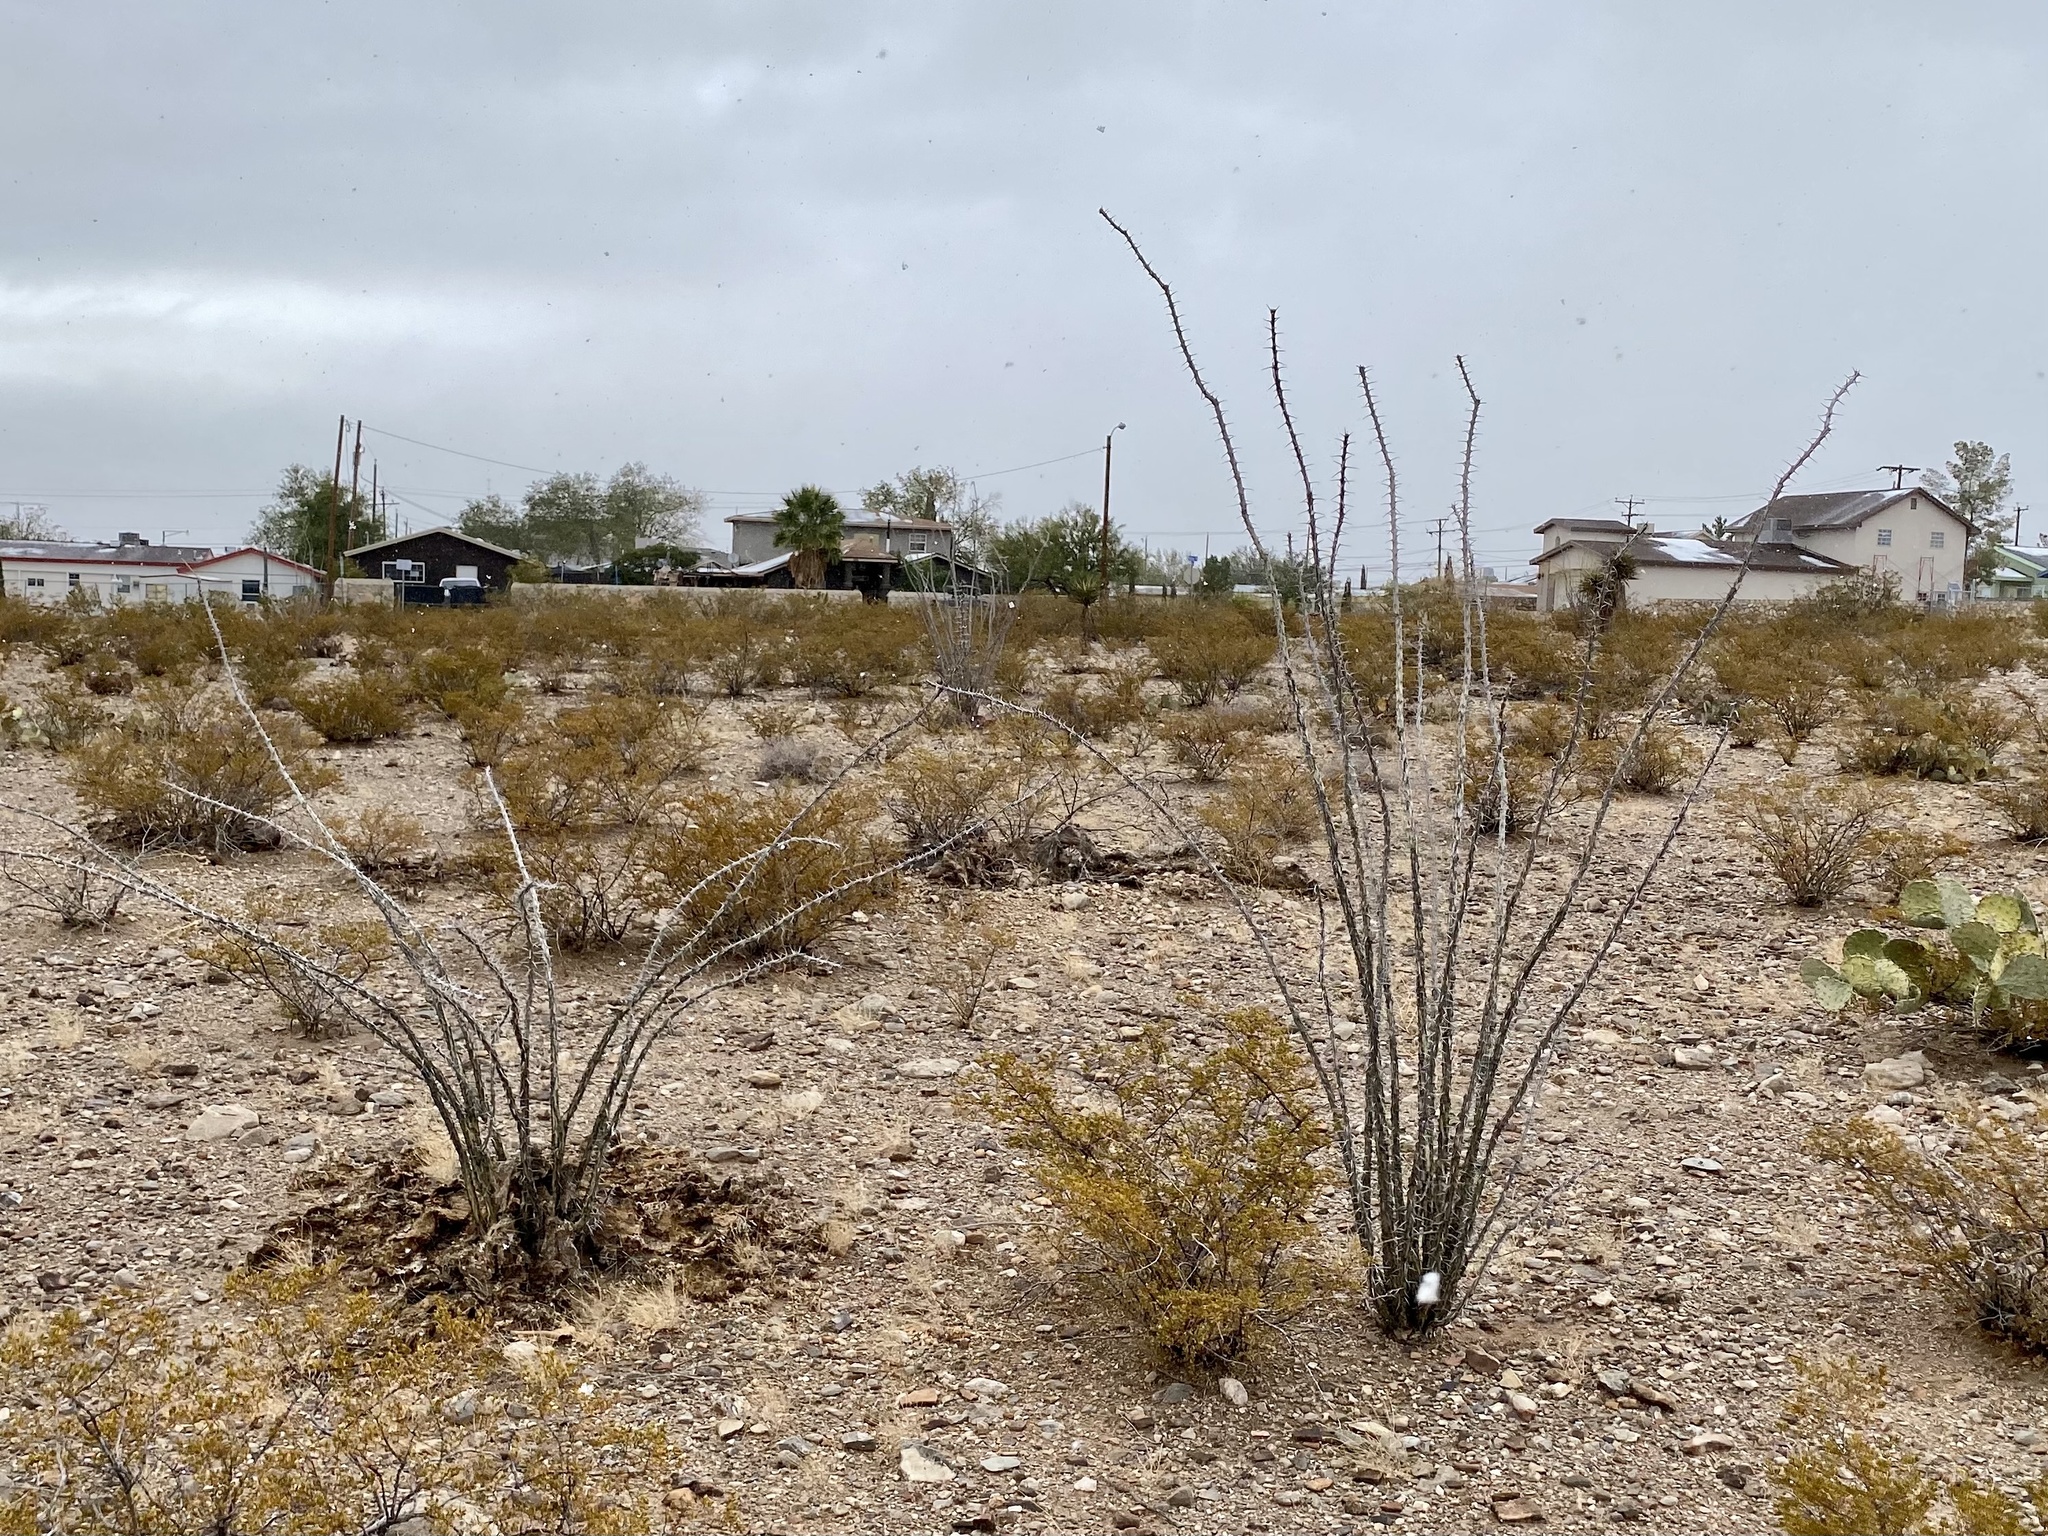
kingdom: Plantae
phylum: Tracheophyta
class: Magnoliopsida
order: Ericales
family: Fouquieriaceae
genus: Fouquieria
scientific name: Fouquieria splendens
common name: Vine-cactus
